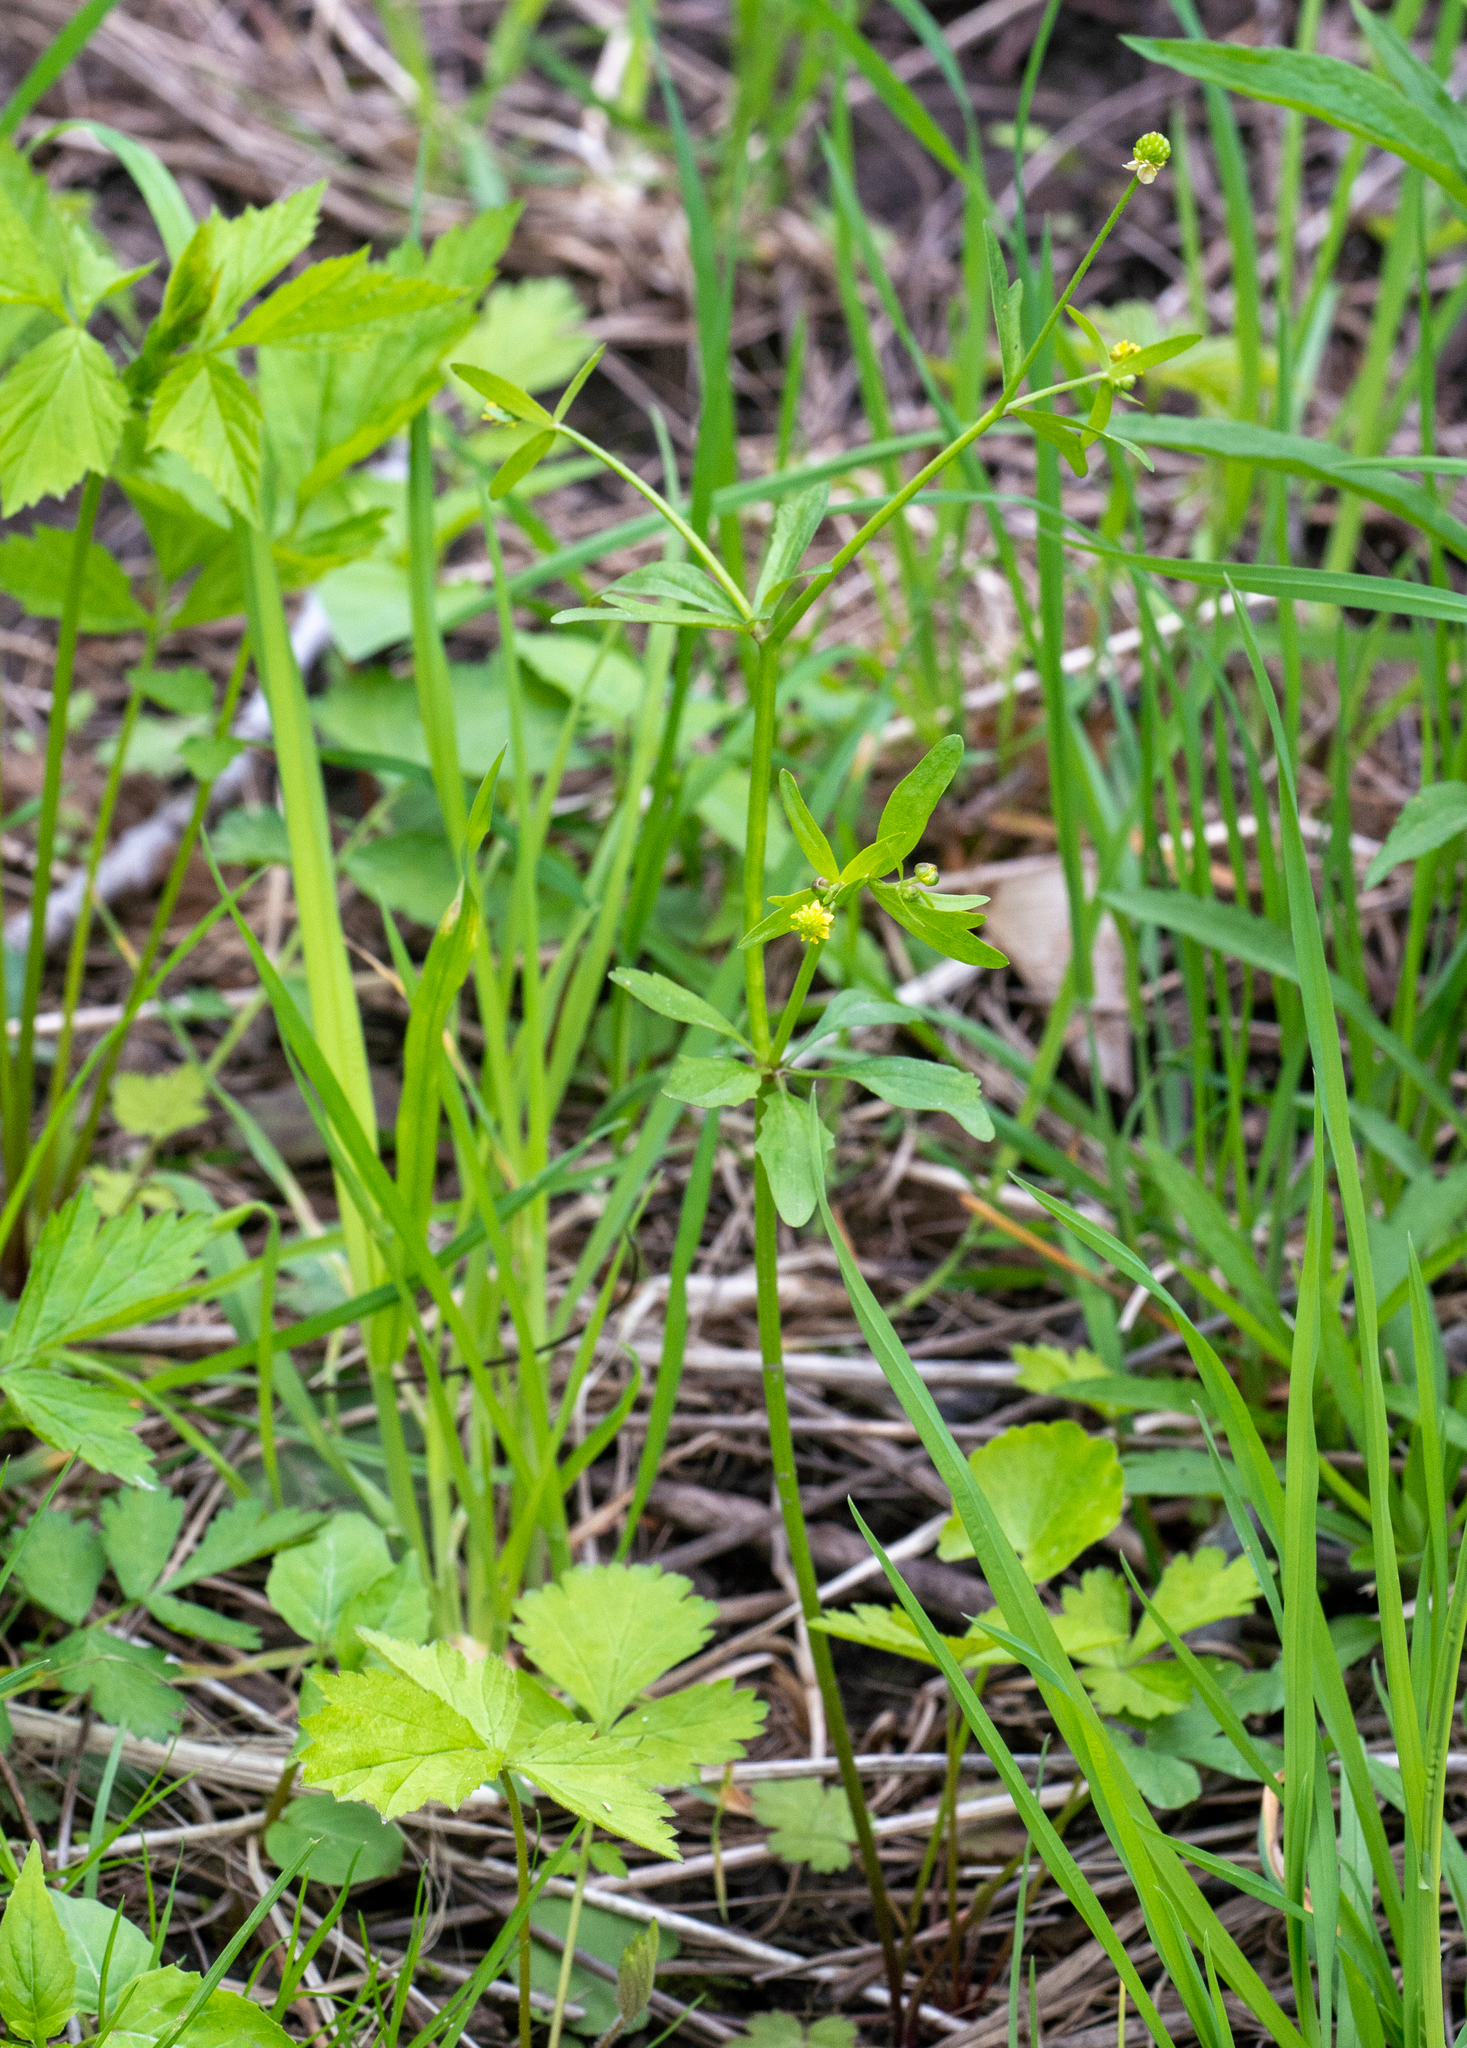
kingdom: Plantae
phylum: Tracheophyta
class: Magnoliopsida
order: Ranunculales
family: Ranunculaceae
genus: Ranunculus
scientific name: Ranunculus abortivus
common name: Early wood buttercup
